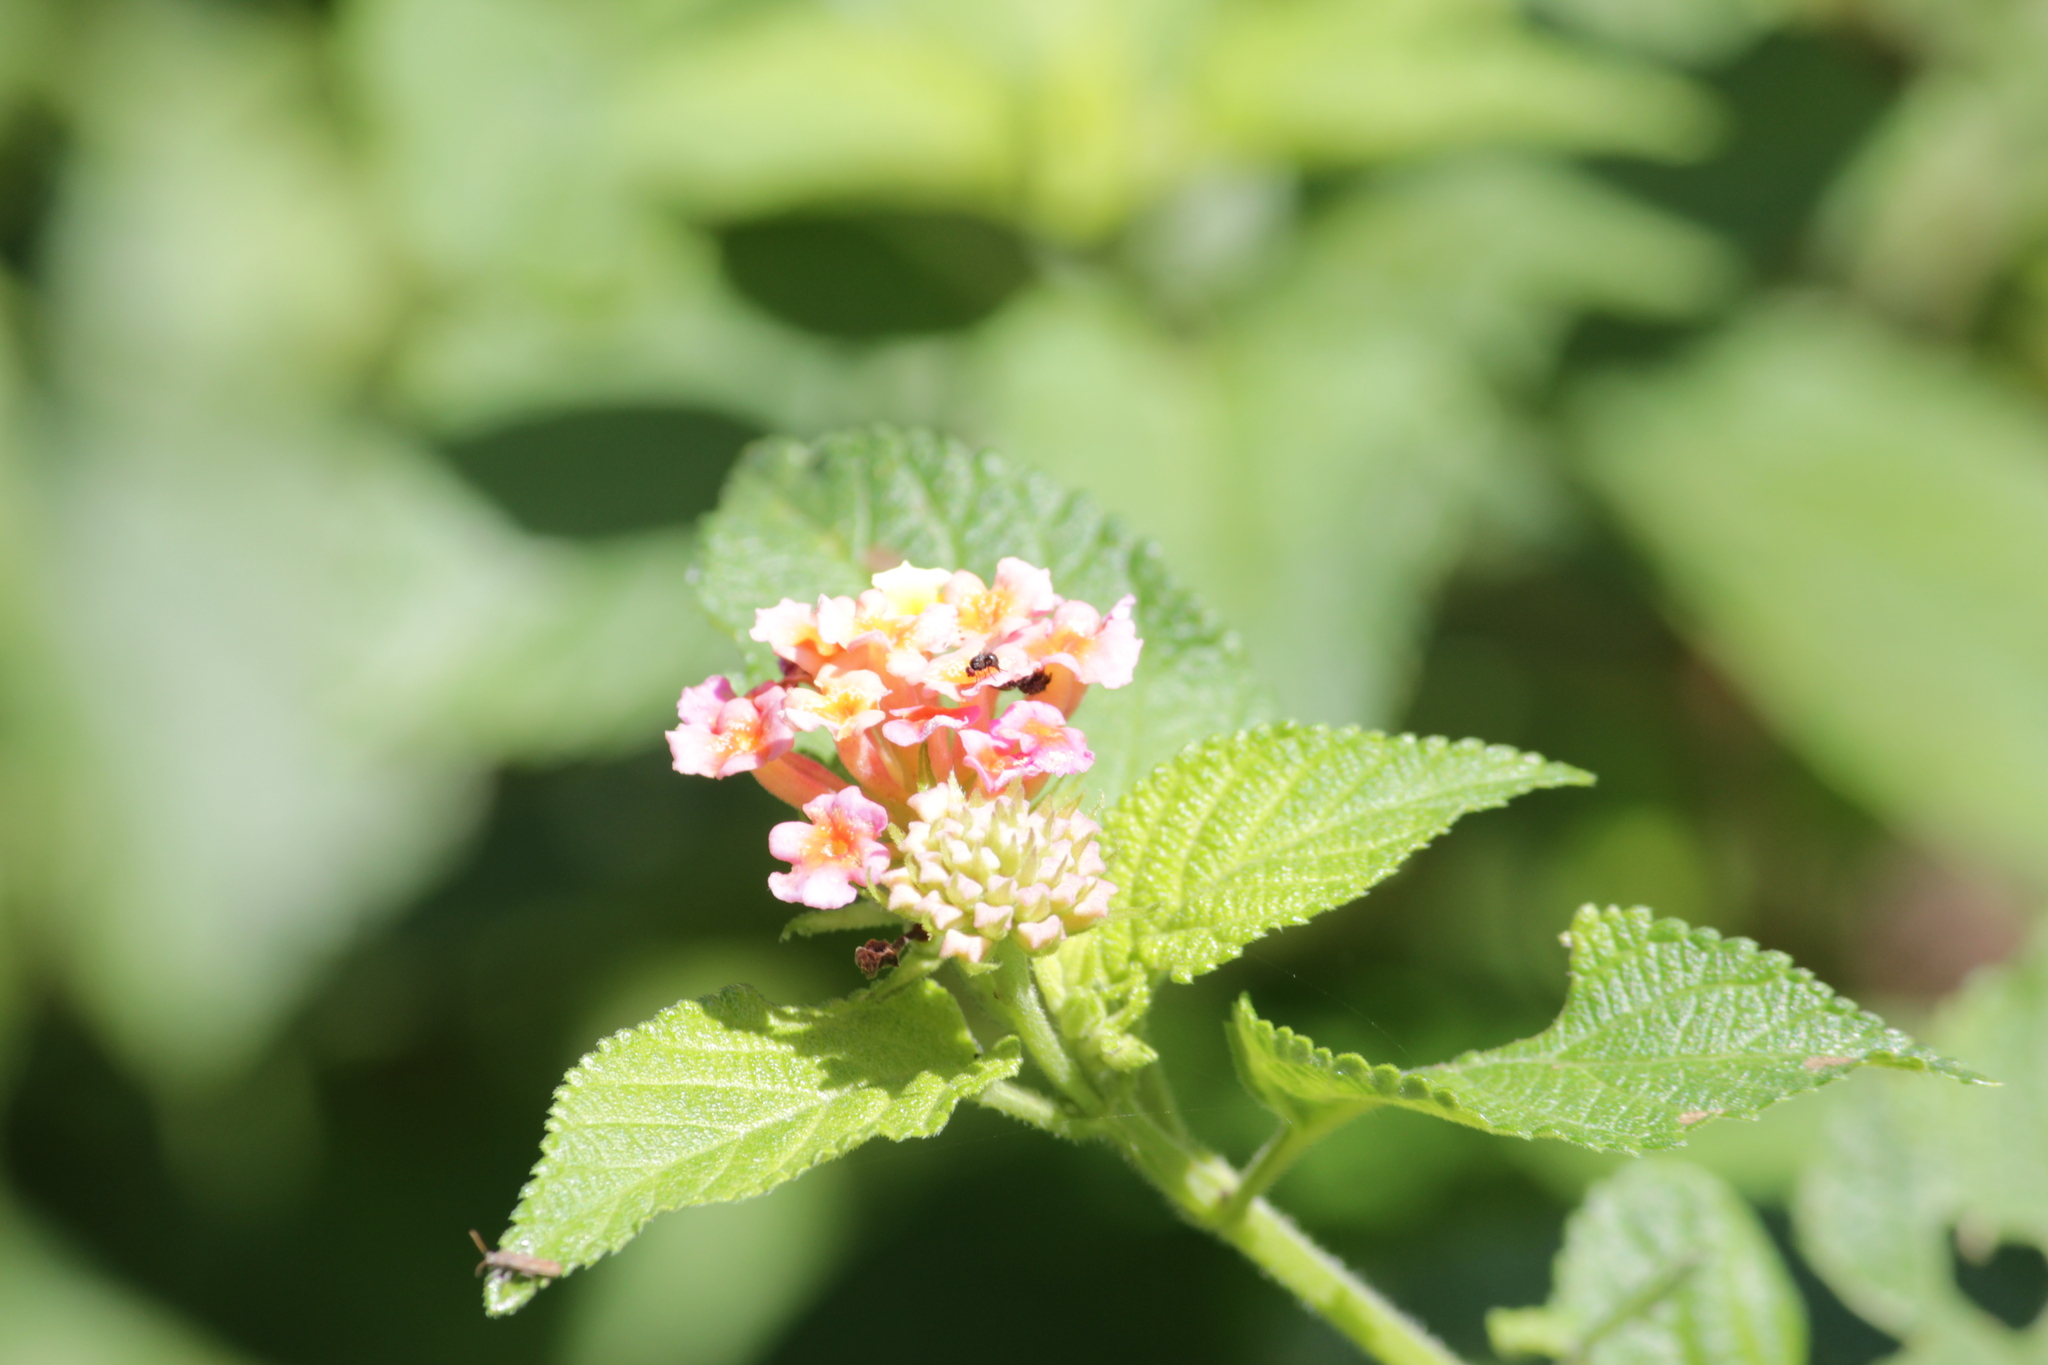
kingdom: Plantae
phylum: Tracheophyta
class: Magnoliopsida
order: Lamiales
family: Verbenaceae
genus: Lantana
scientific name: Lantana camara
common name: Lantana
